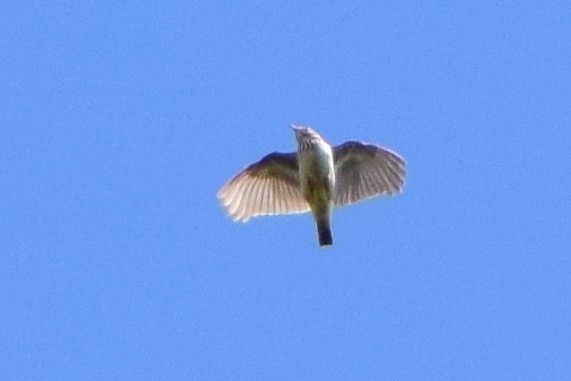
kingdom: Animalia
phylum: Chordata
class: Aves
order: Passeriformes
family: Alaudidae
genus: Lullula
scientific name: Lullula arborea
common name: Woodlark
